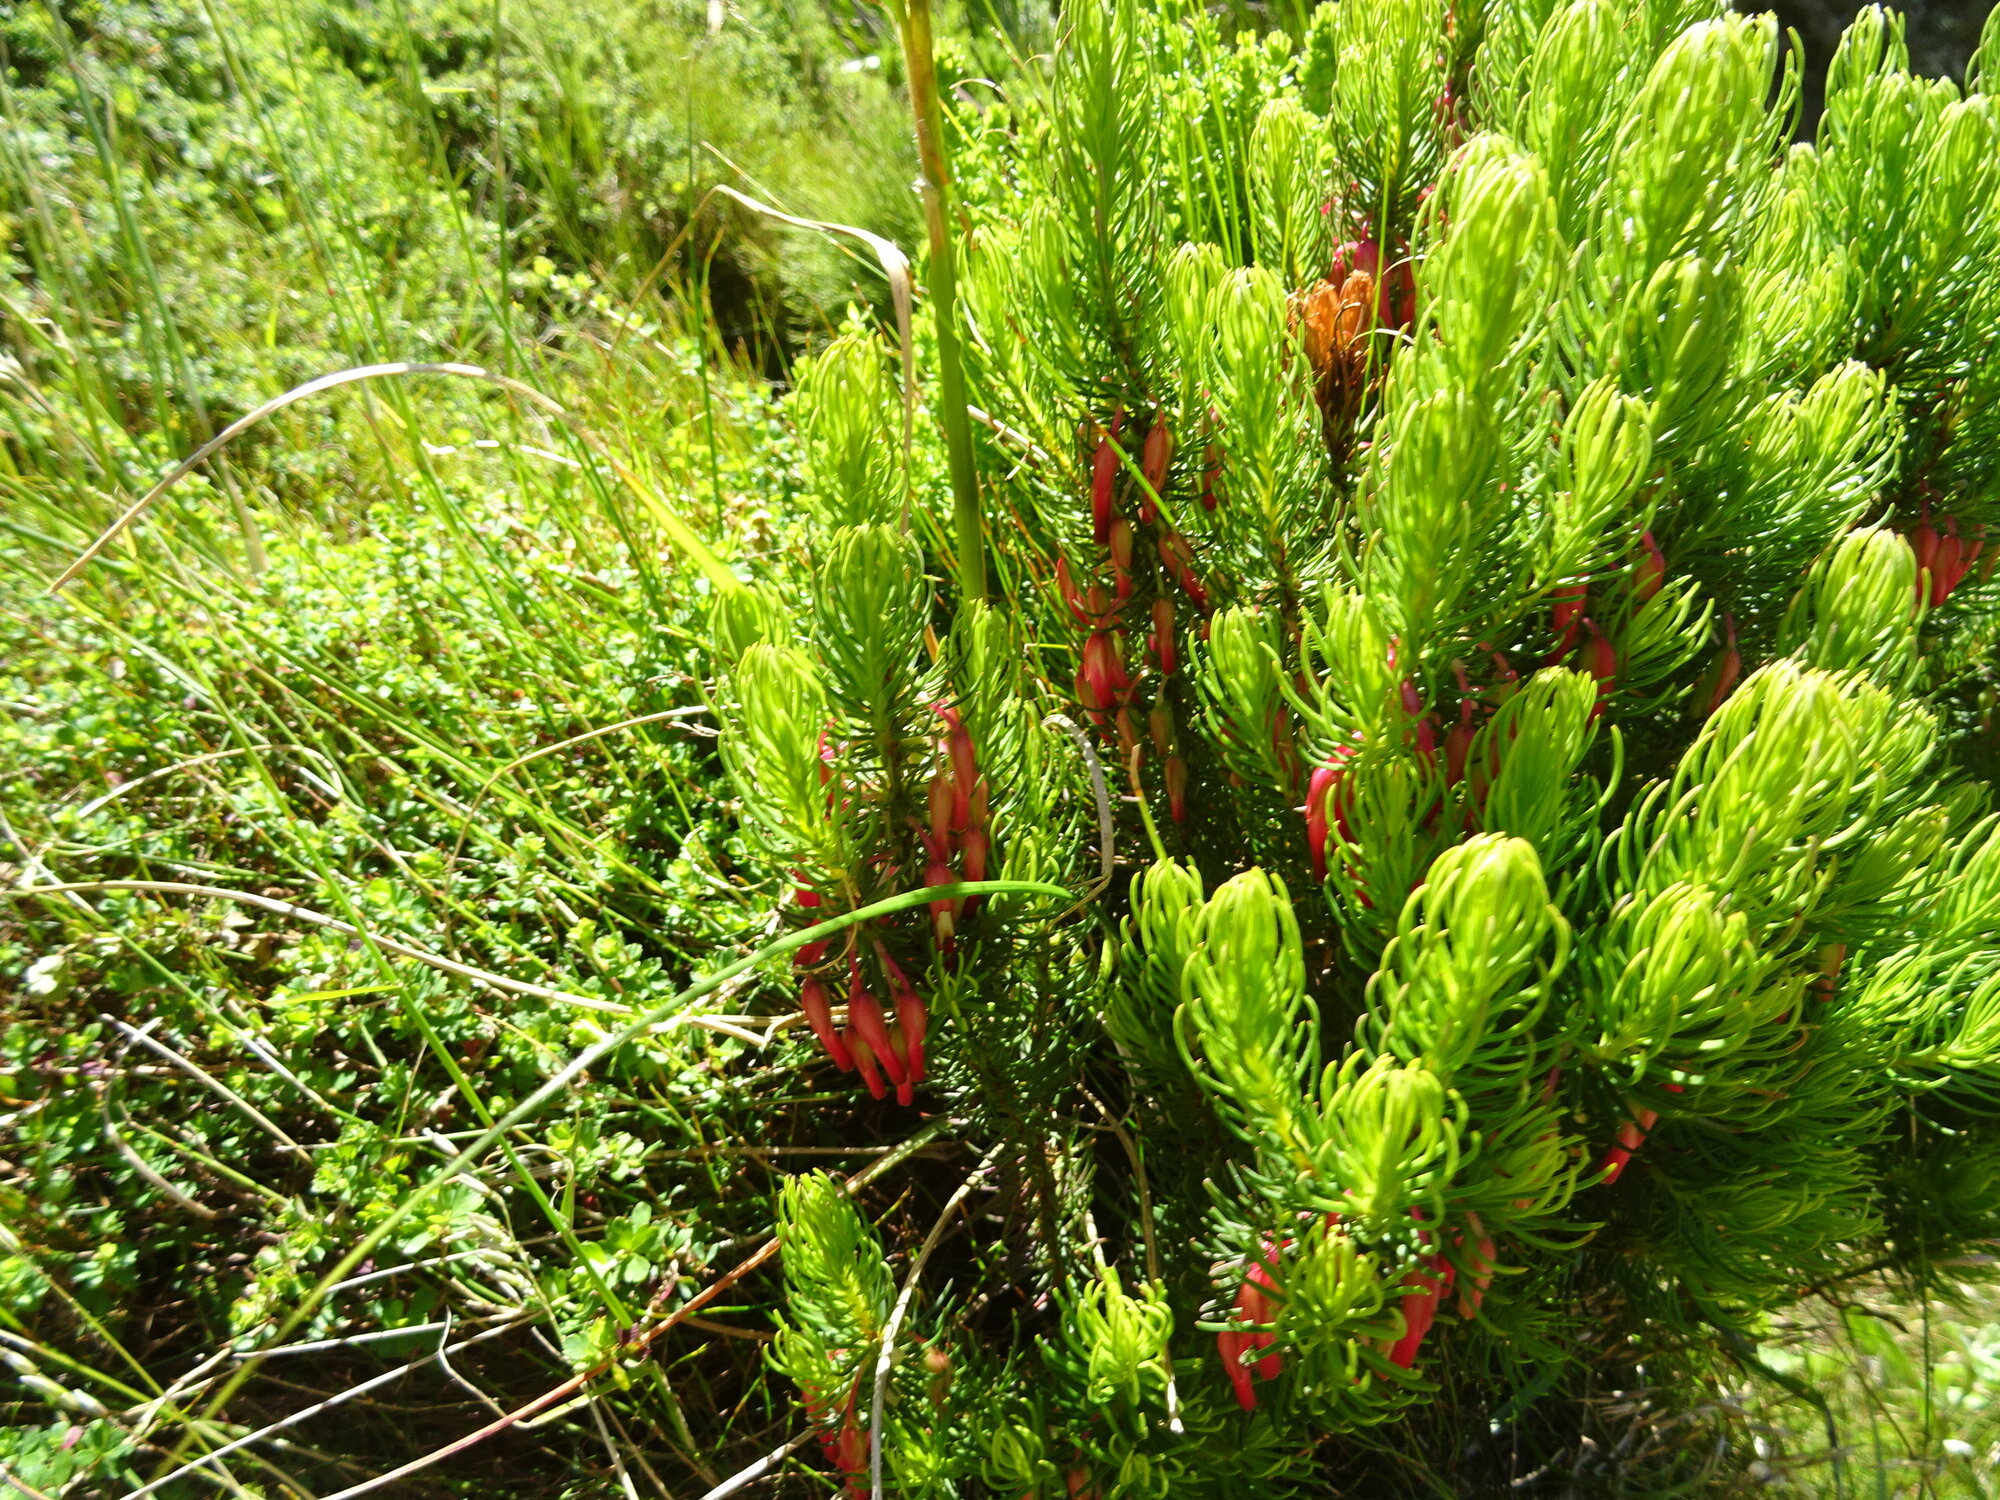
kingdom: Plantae
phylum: Tracheophyta
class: Magnoliopsida
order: Ericales
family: Ericaceae
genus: Erica
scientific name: Erica plukenetii
